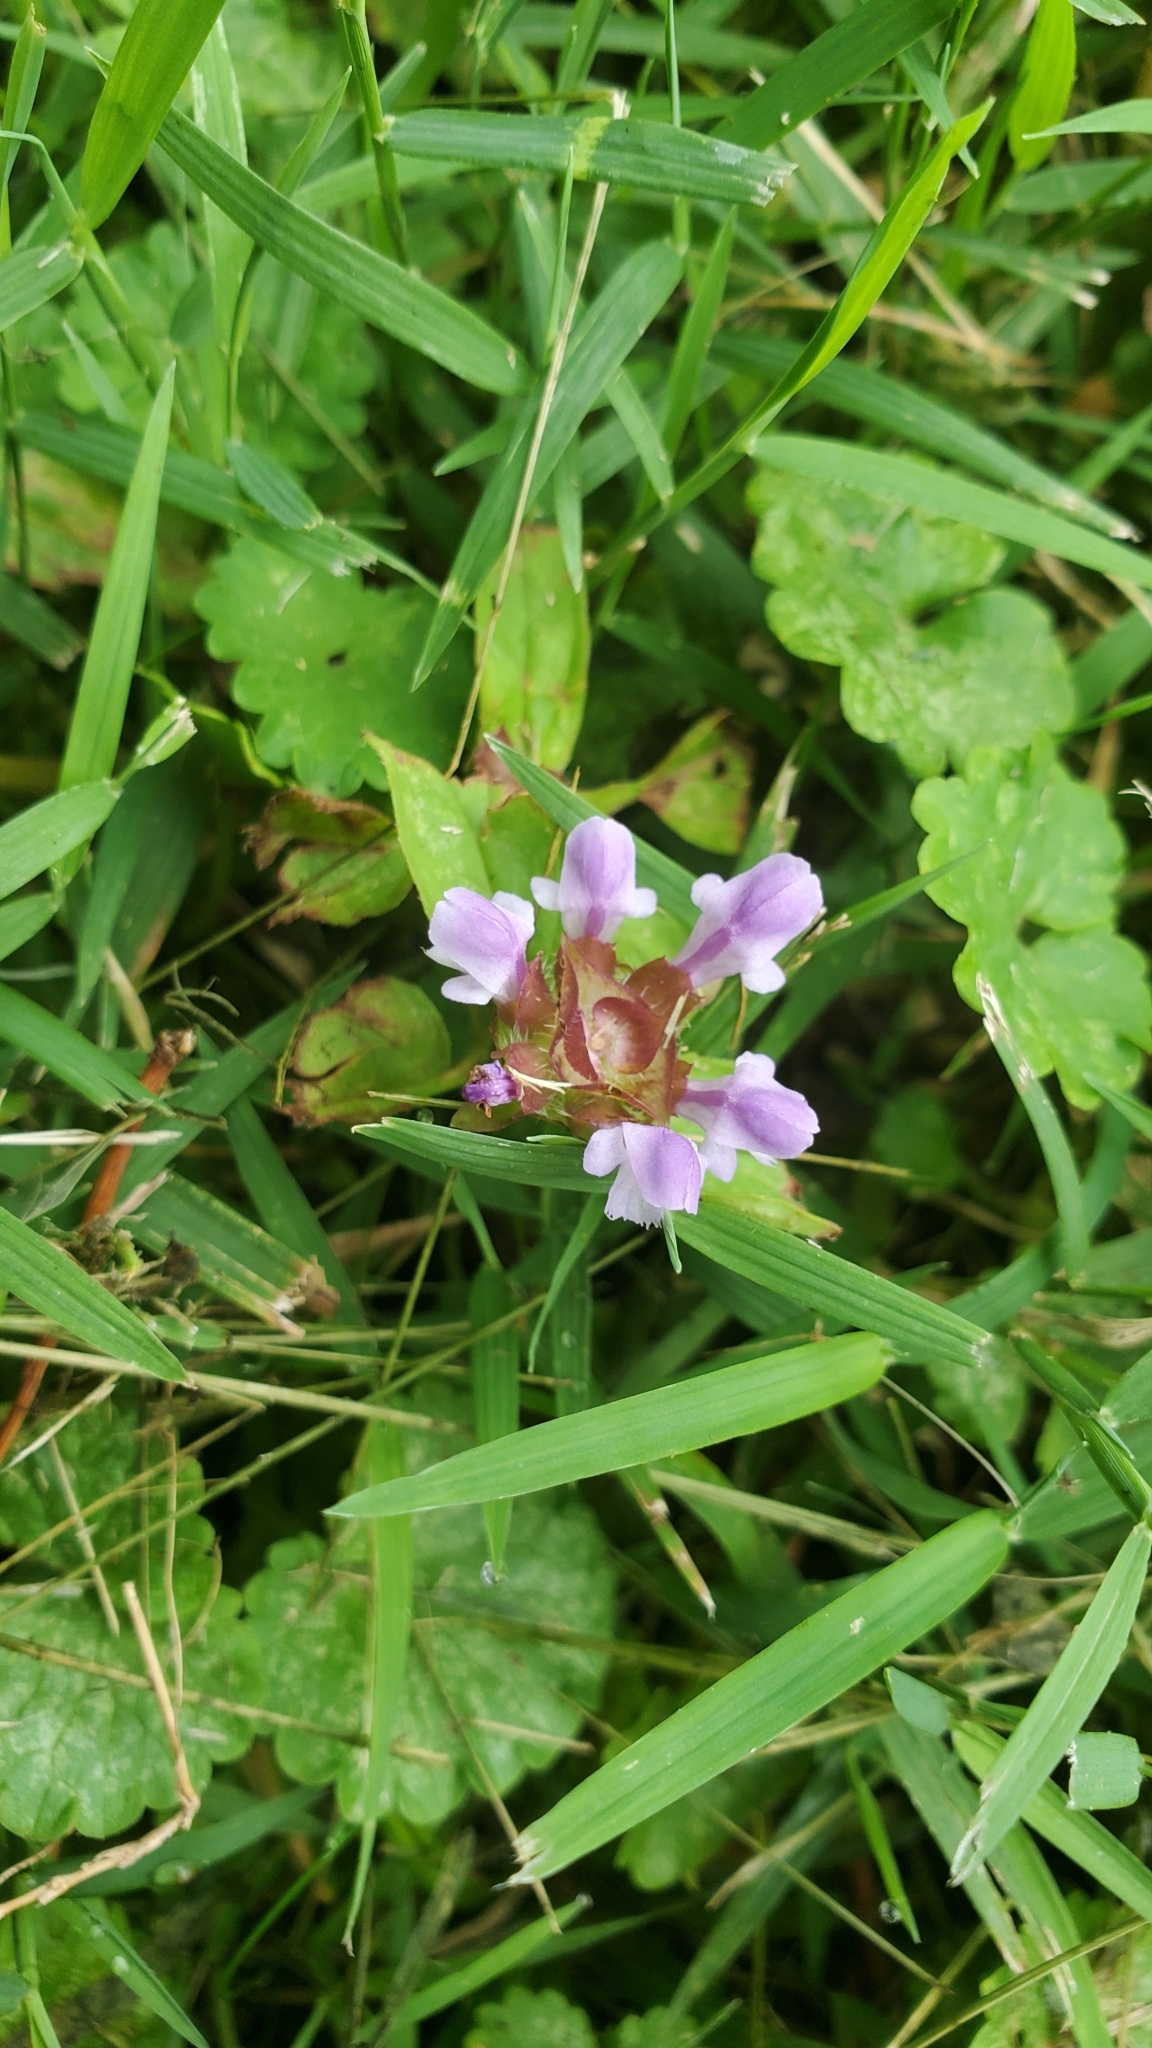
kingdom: Plantae
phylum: Tracheophyta
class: Magnoliopsida
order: Lamiales
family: Lamiaceae
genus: Prunella
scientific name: Prunella vulgaris
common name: Heal-all
